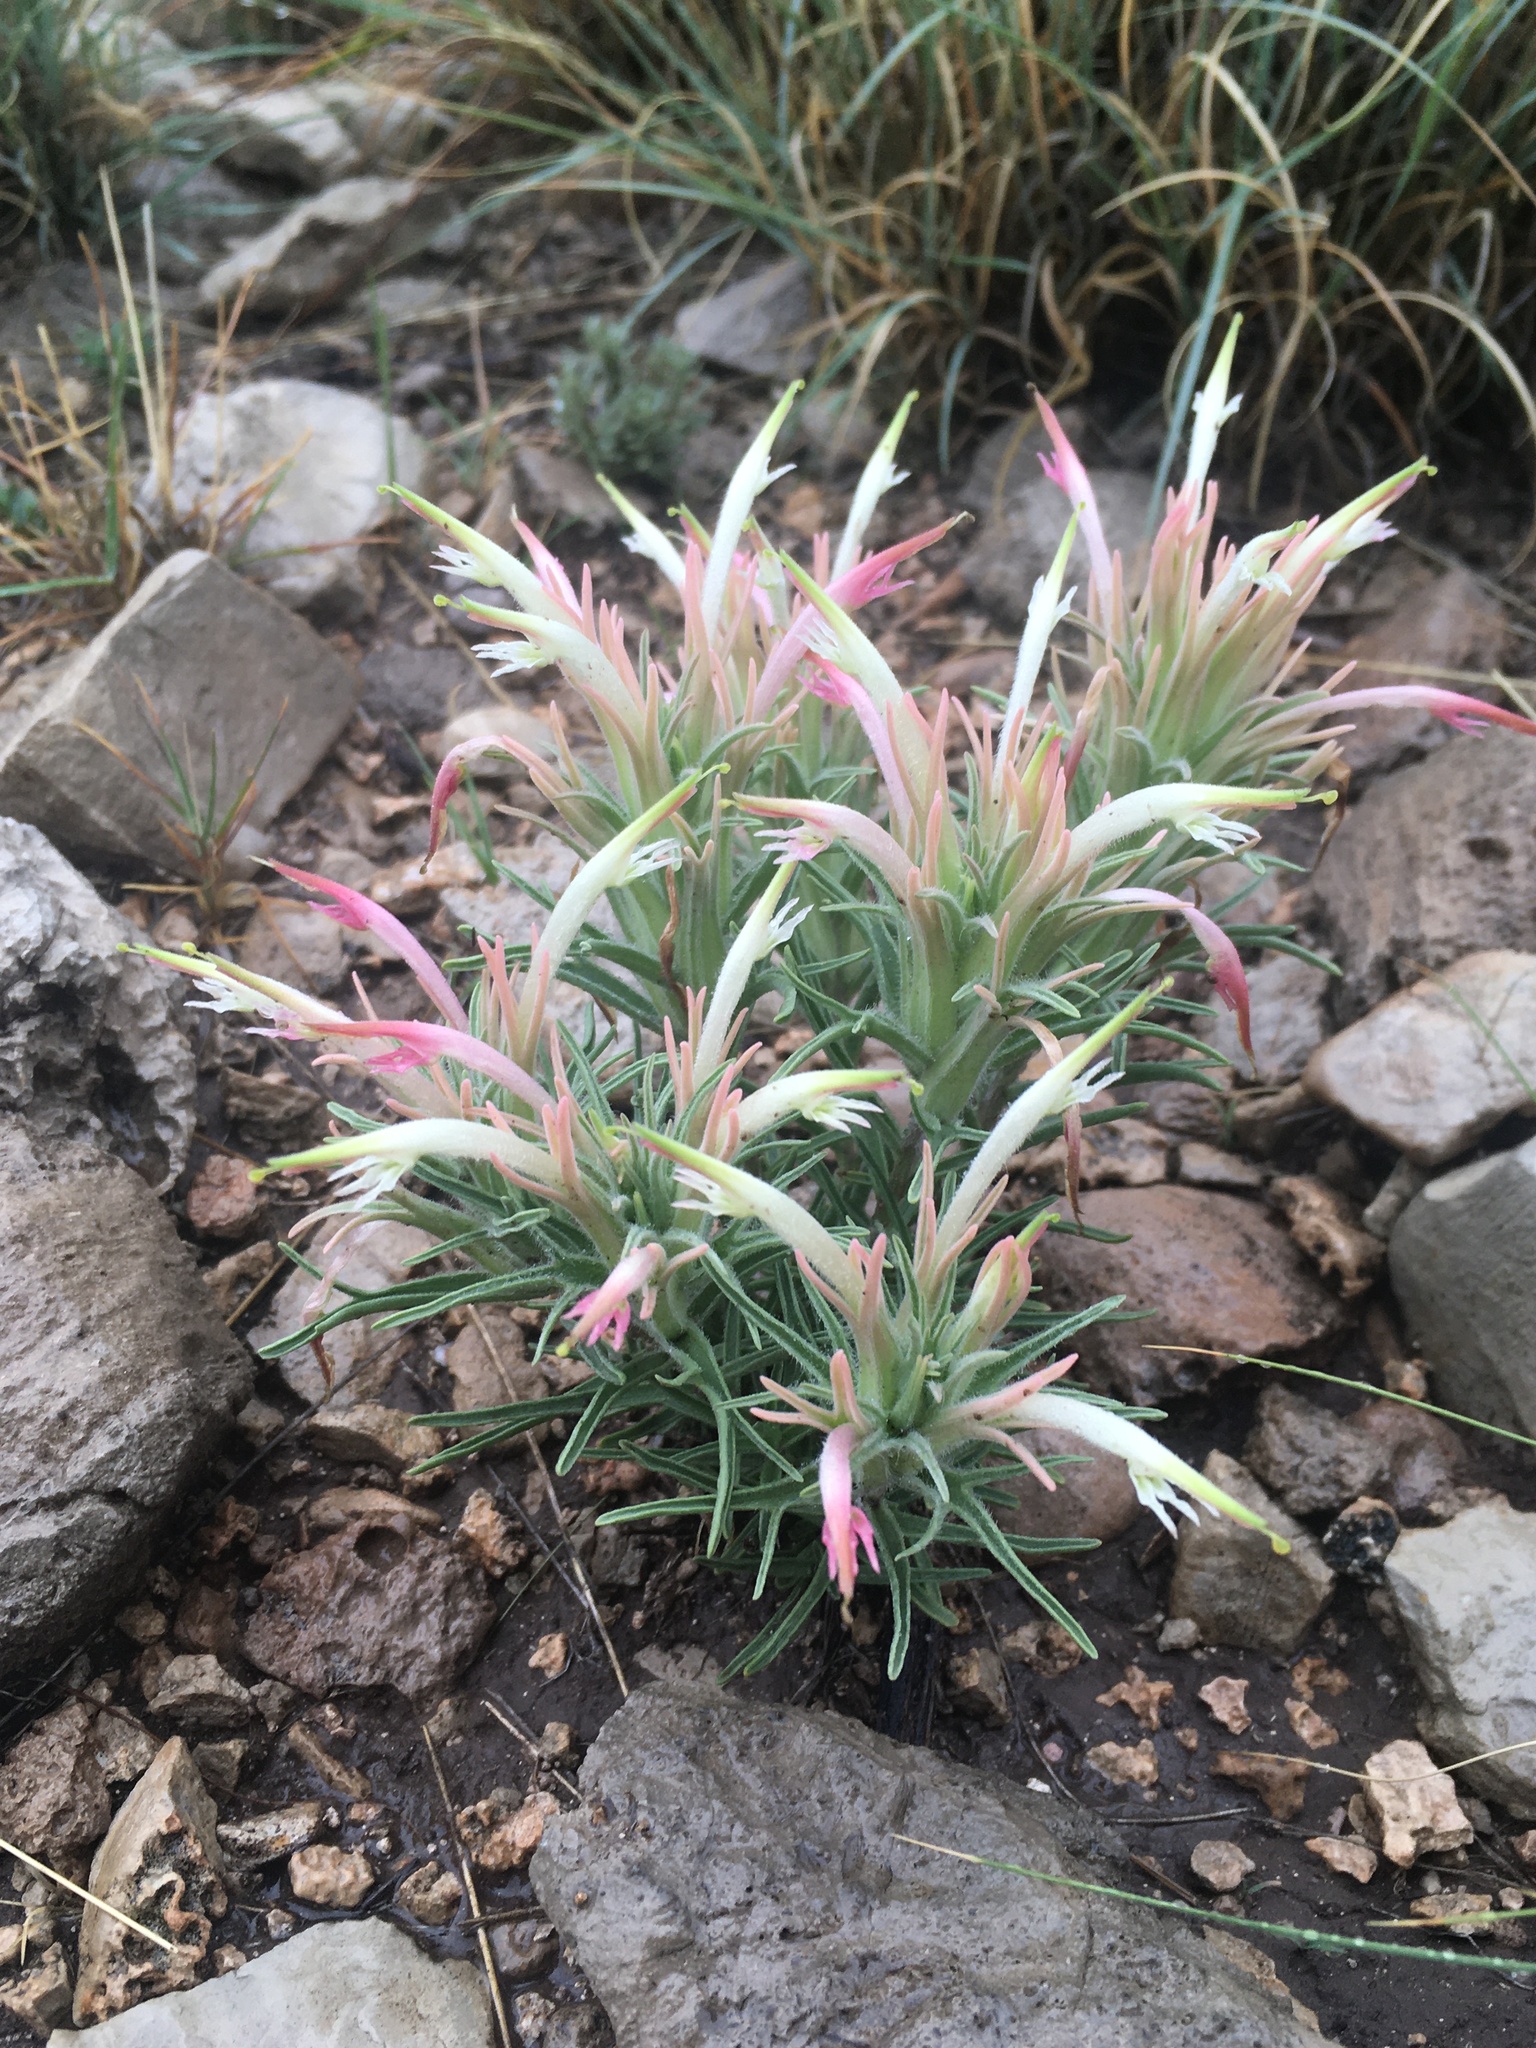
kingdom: Plantae
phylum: Tracheophyta
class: Magnoliopsida
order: Lamiales
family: Orobanchaceae
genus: Castilleja
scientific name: Castilleja sessiliflora
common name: Downy paintbrush
